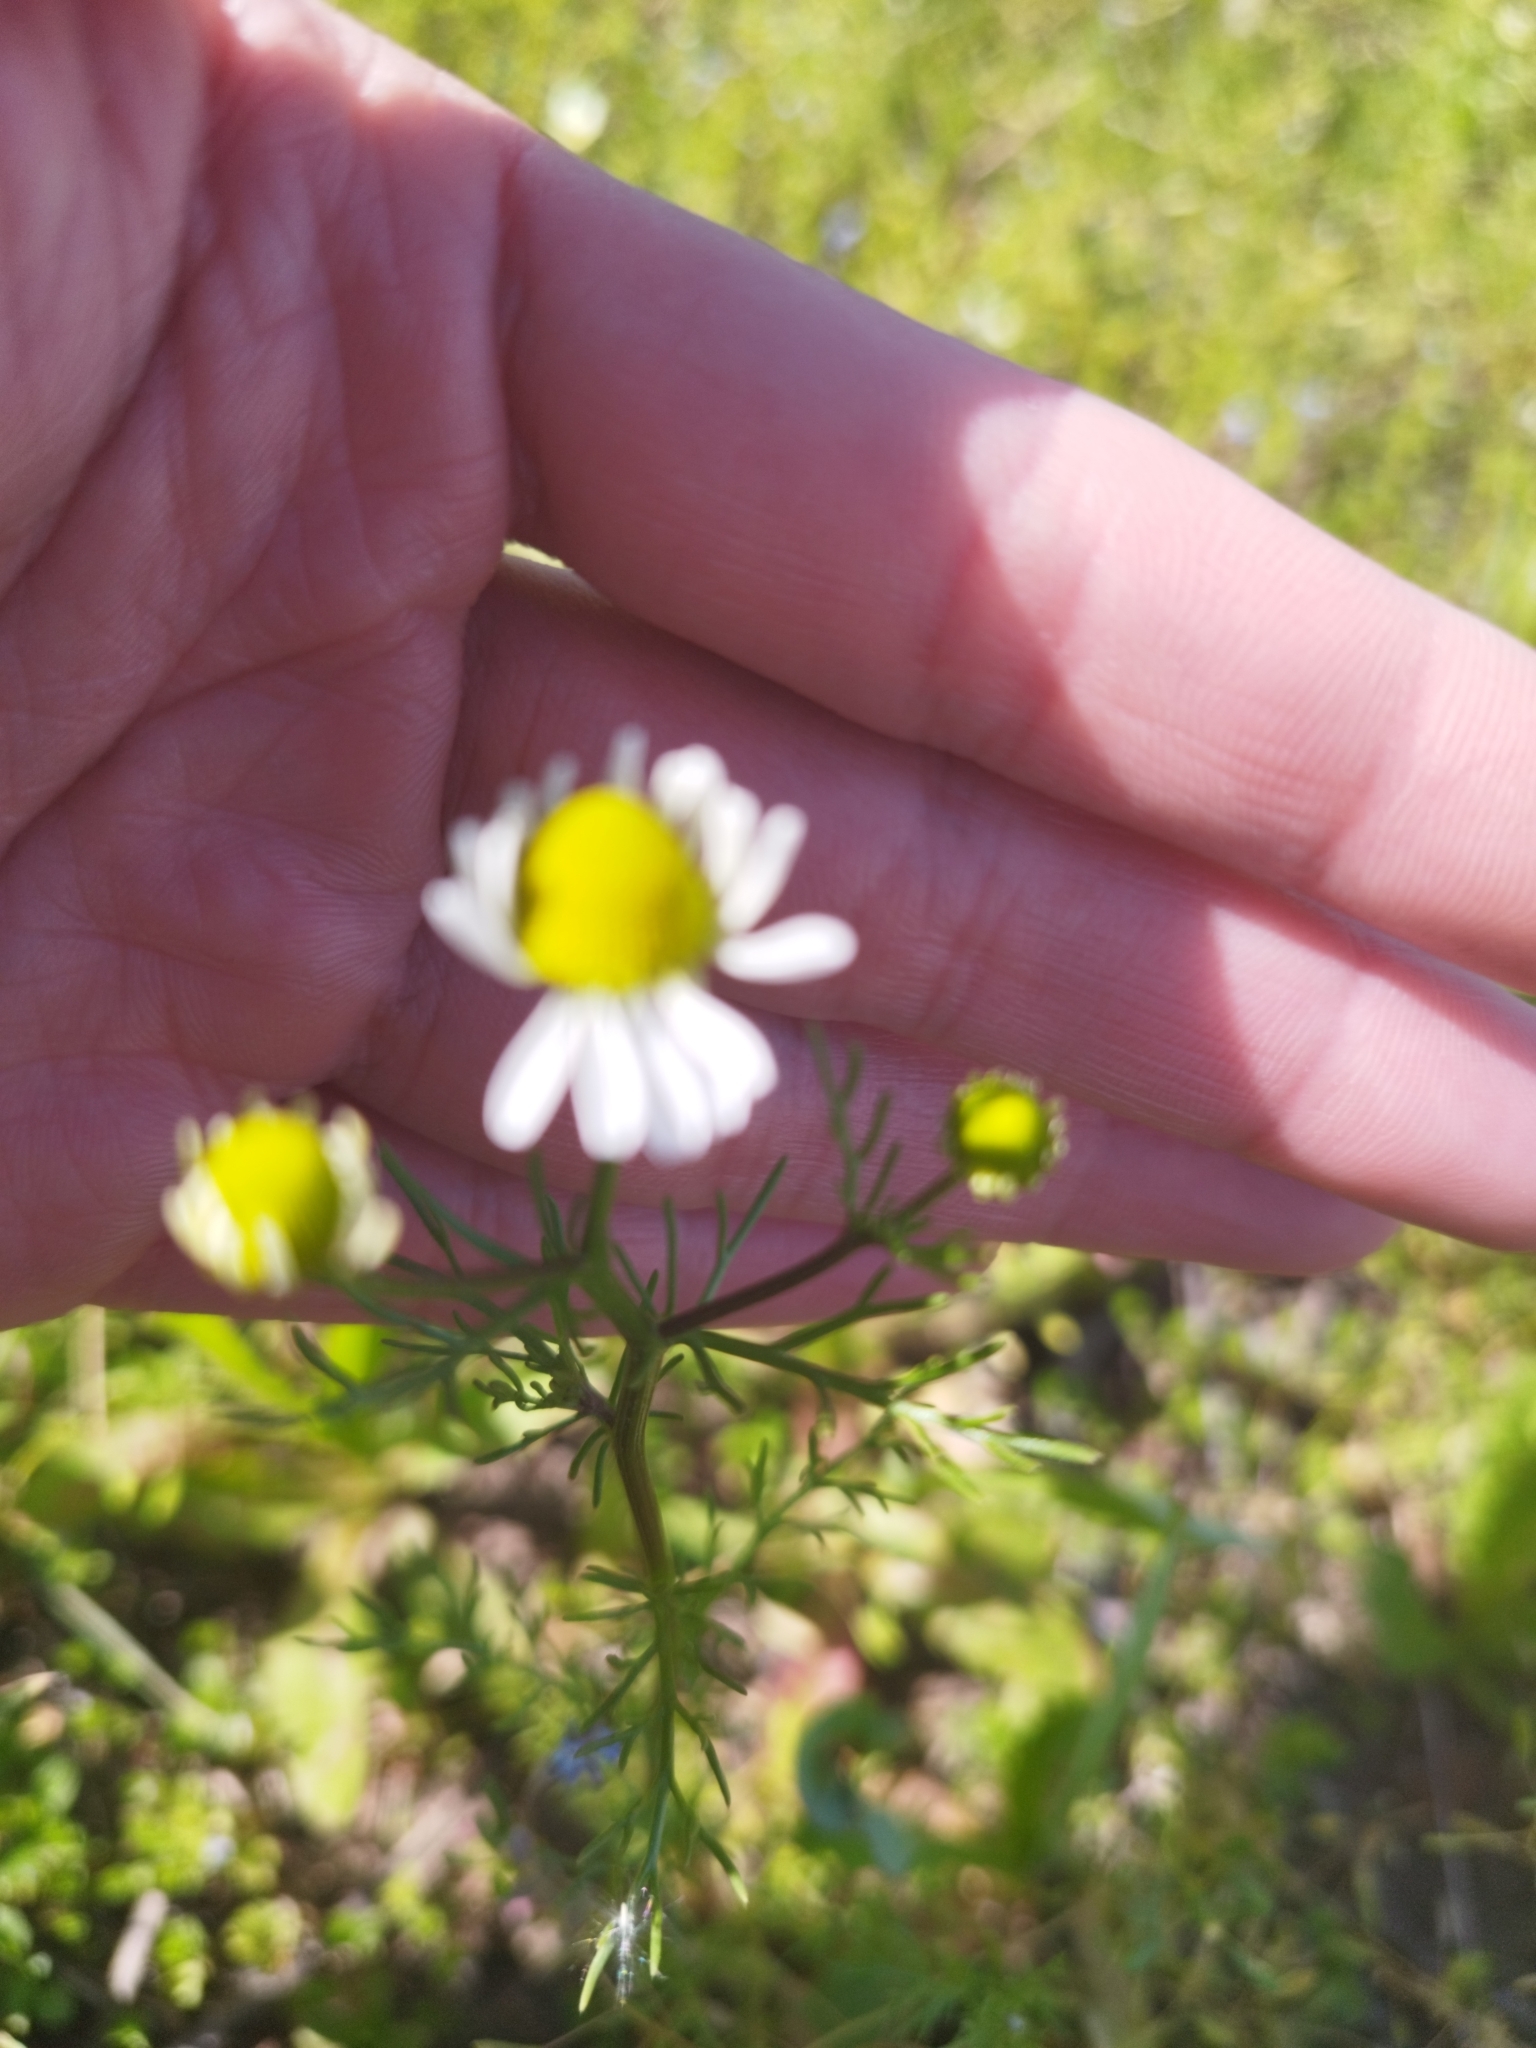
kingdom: Plantae
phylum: Tracheophyta
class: Magnoliopsida
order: Asterales
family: Asteraceae
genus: Matricaria
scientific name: Matricaria chamomilla
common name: Scented mayweed
